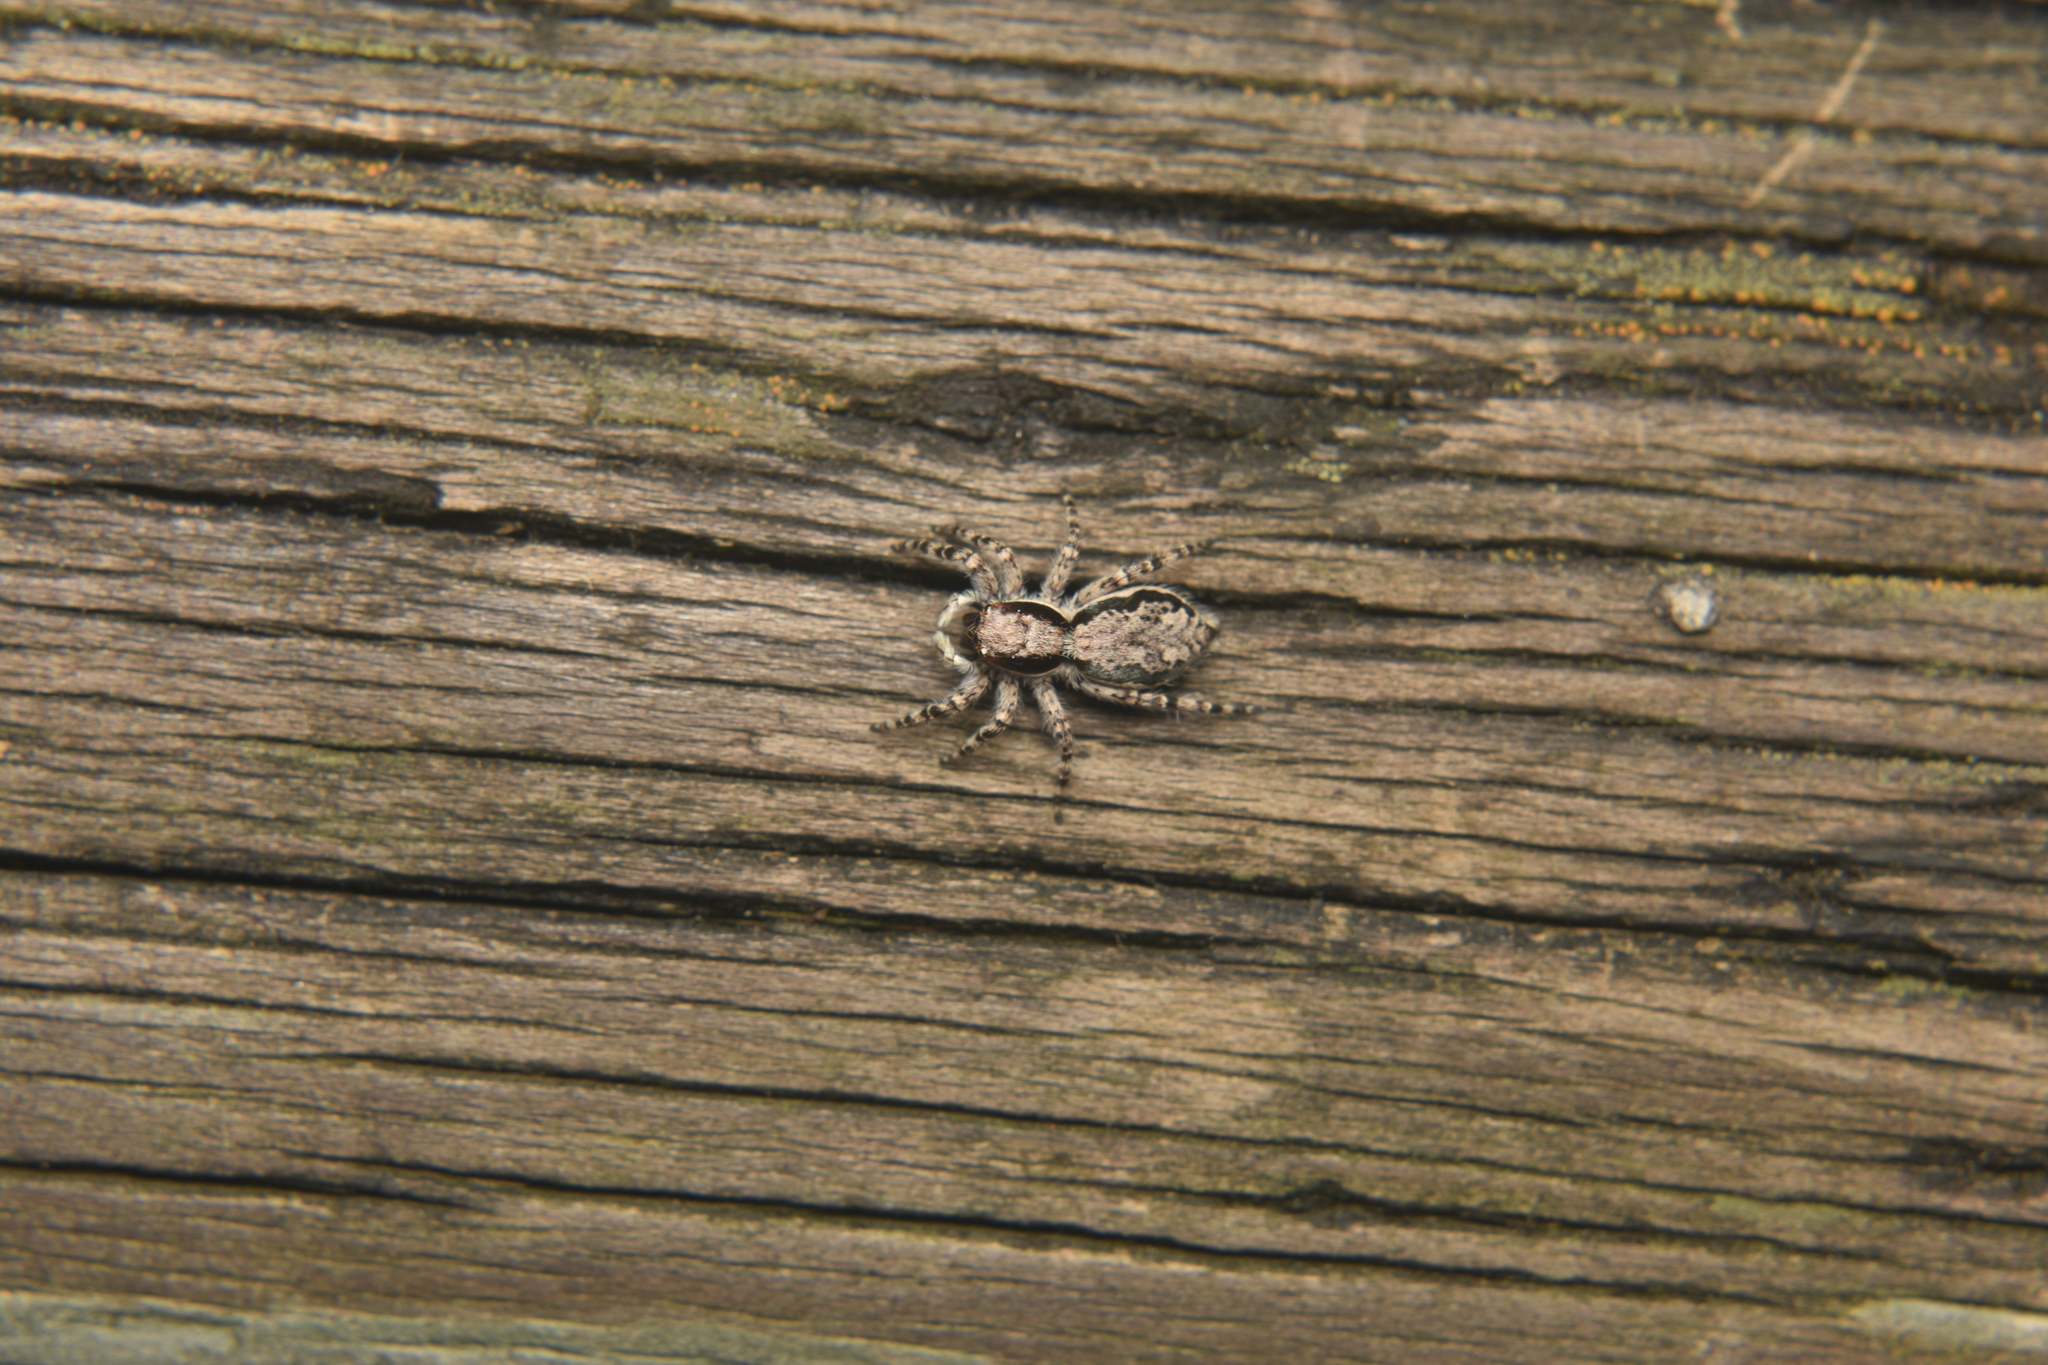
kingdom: Animalia
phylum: Arthropoda
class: Arachnida
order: Araneae
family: Salticidae
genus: Menemerus
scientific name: Menemerus bivittatus
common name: Gray wall jumper
